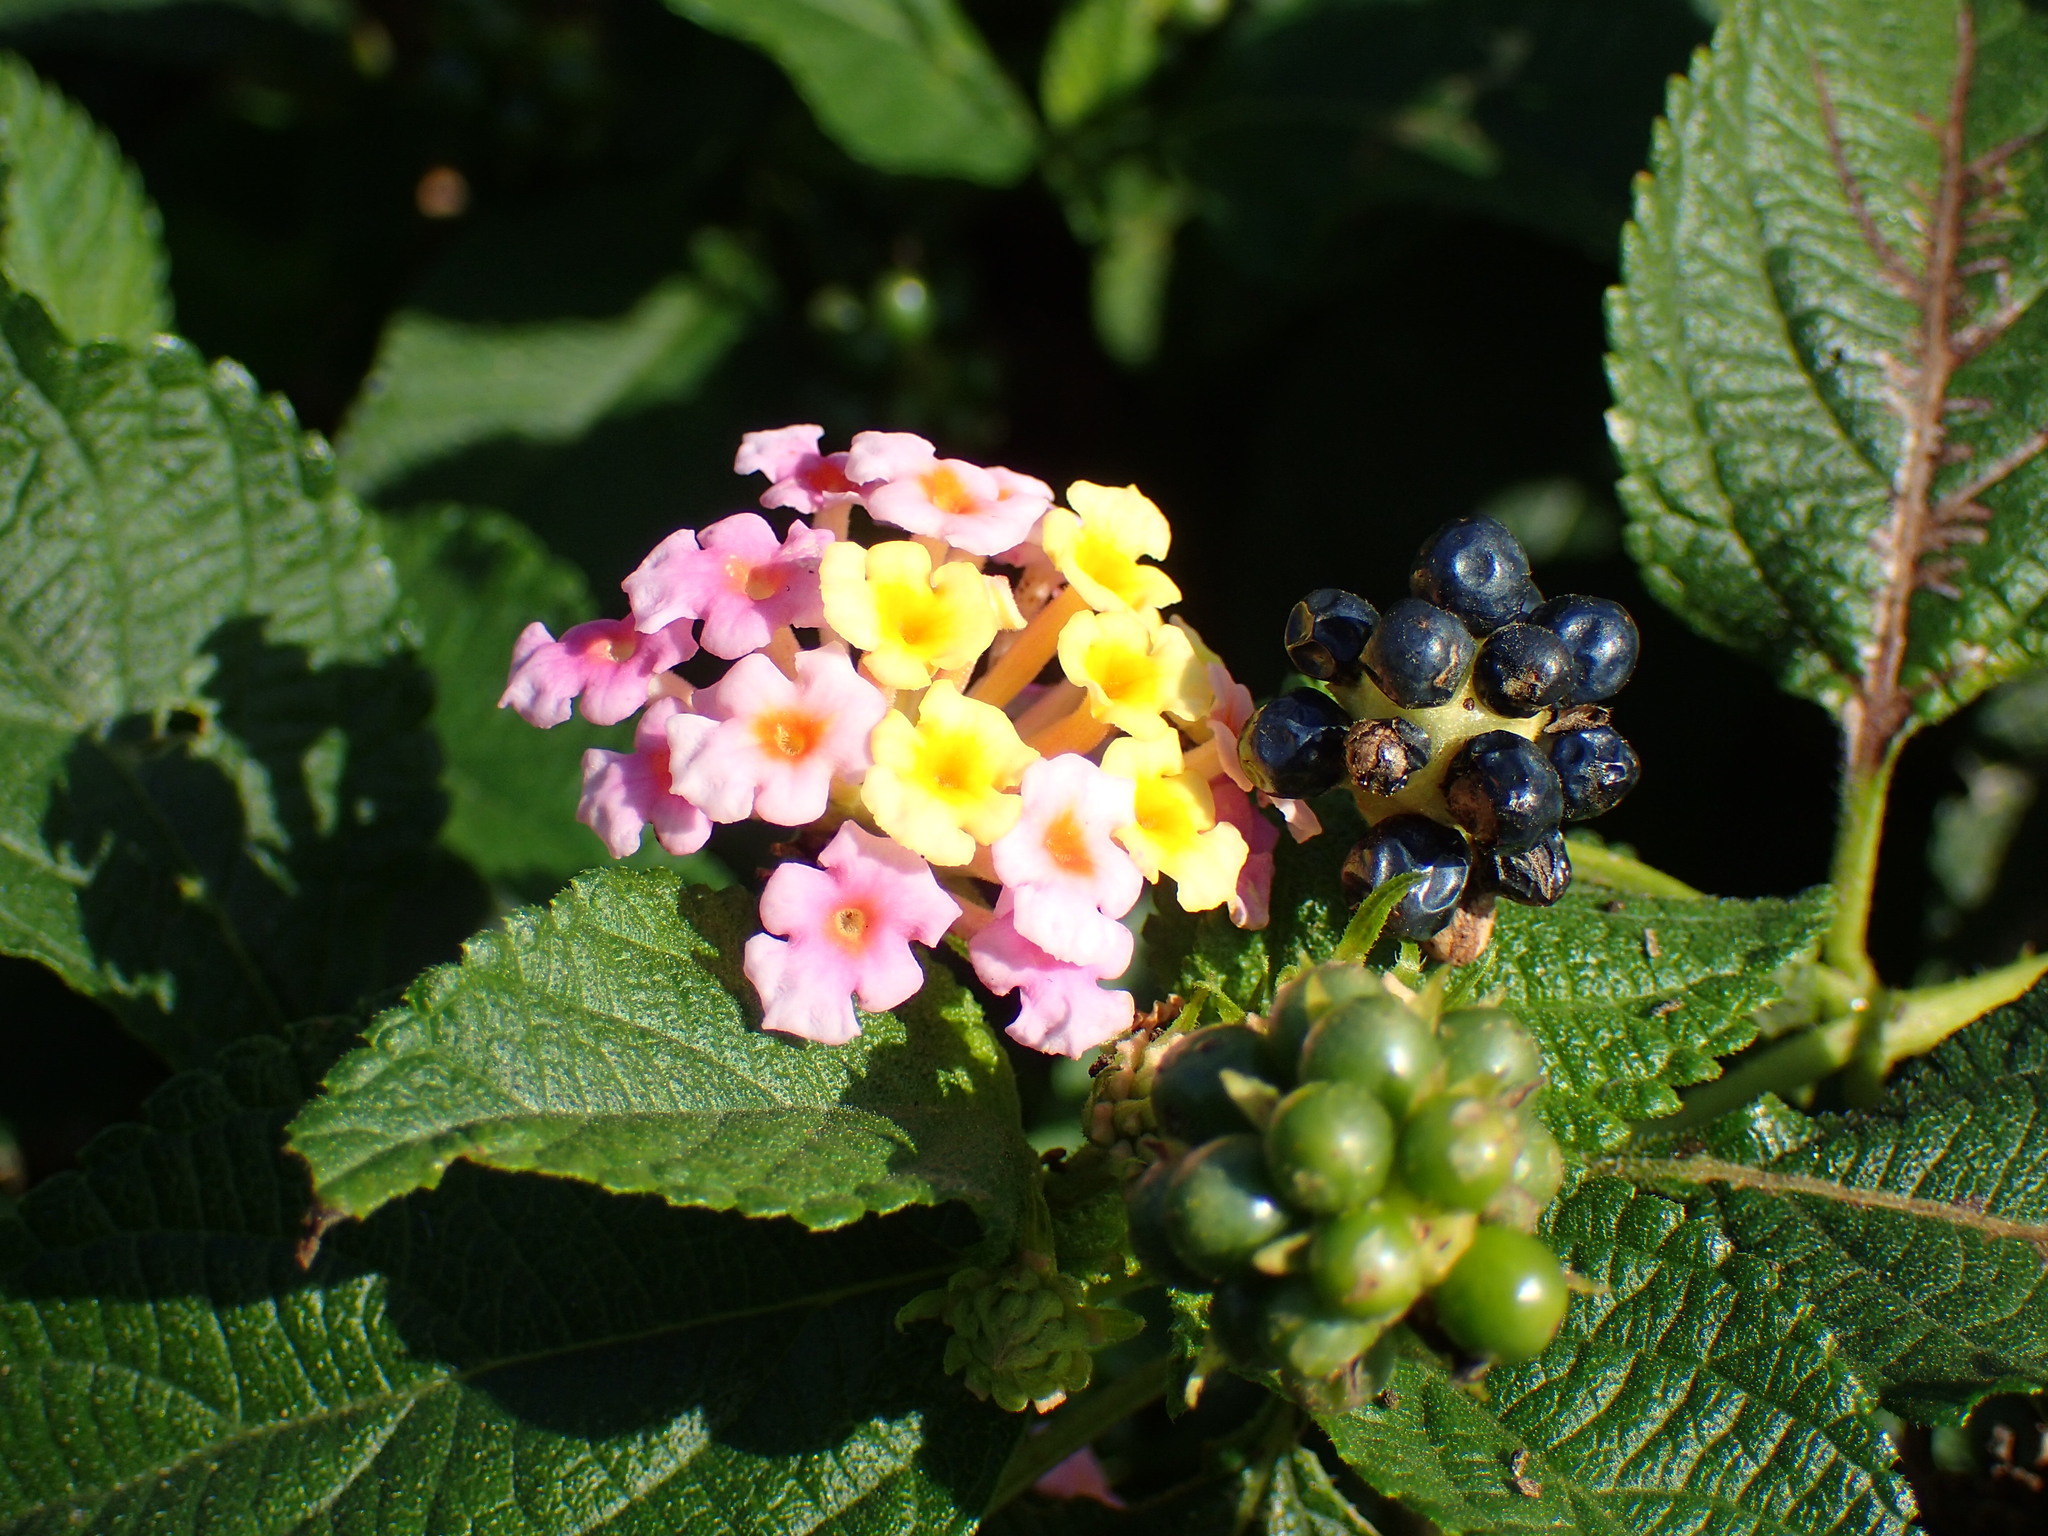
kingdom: Plantae
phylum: Tracheophyta
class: Magnoliopsida
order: Lamiales
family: Verbenaceae
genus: Lantana
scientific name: Lantana camara
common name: Lantana
